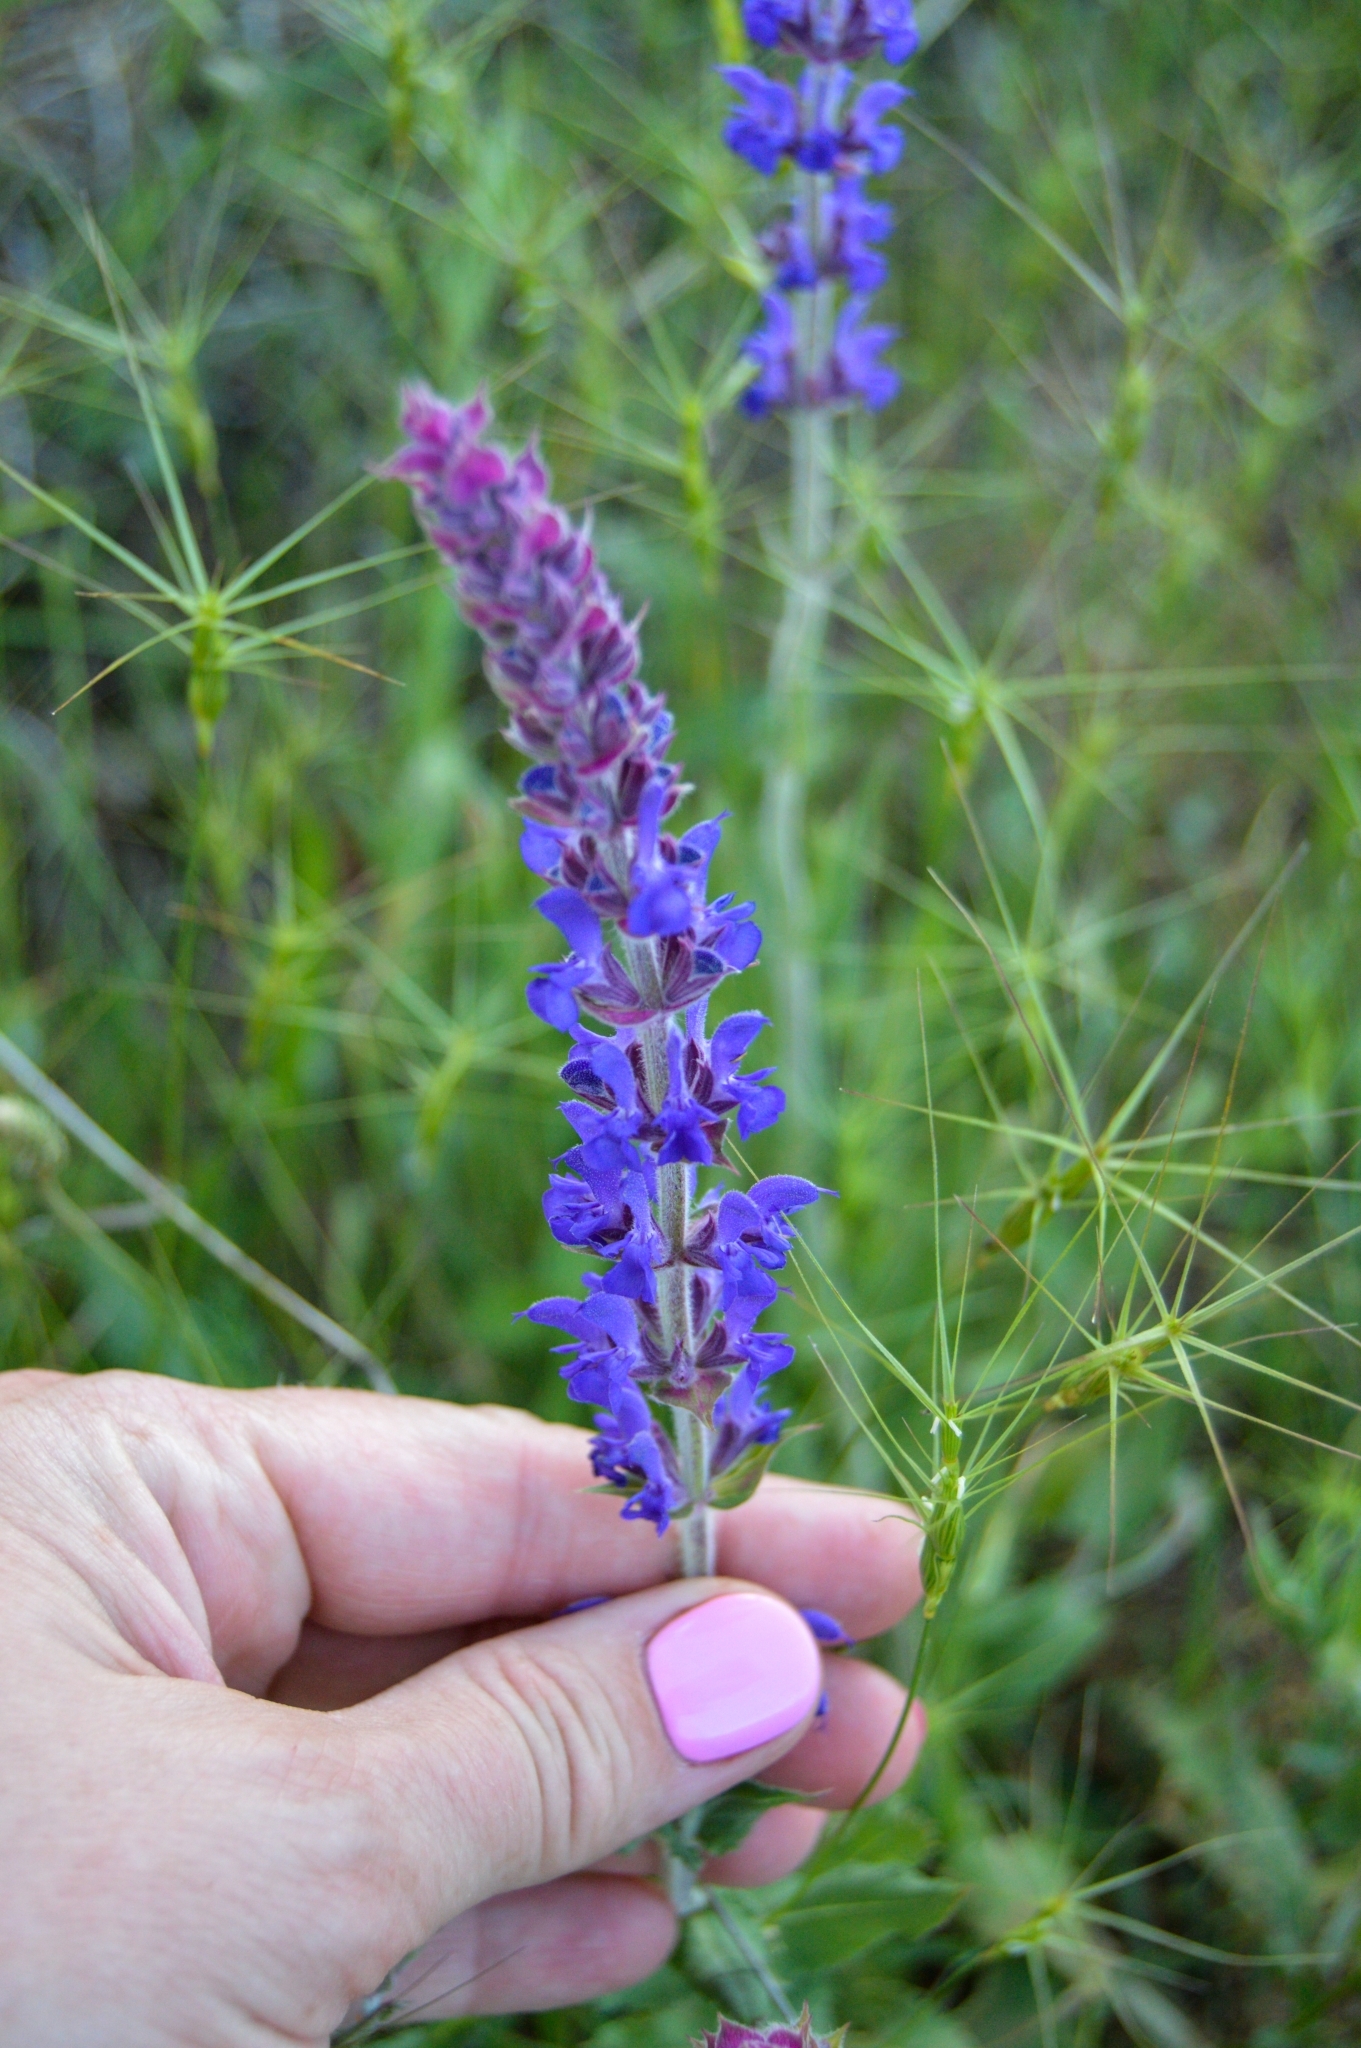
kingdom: Plantae
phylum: Tracheophyta
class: Magnoliopsida
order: Lamiales
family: Lamiaceae
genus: Salvia
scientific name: Salvia nemorosa
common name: Balkan clary
